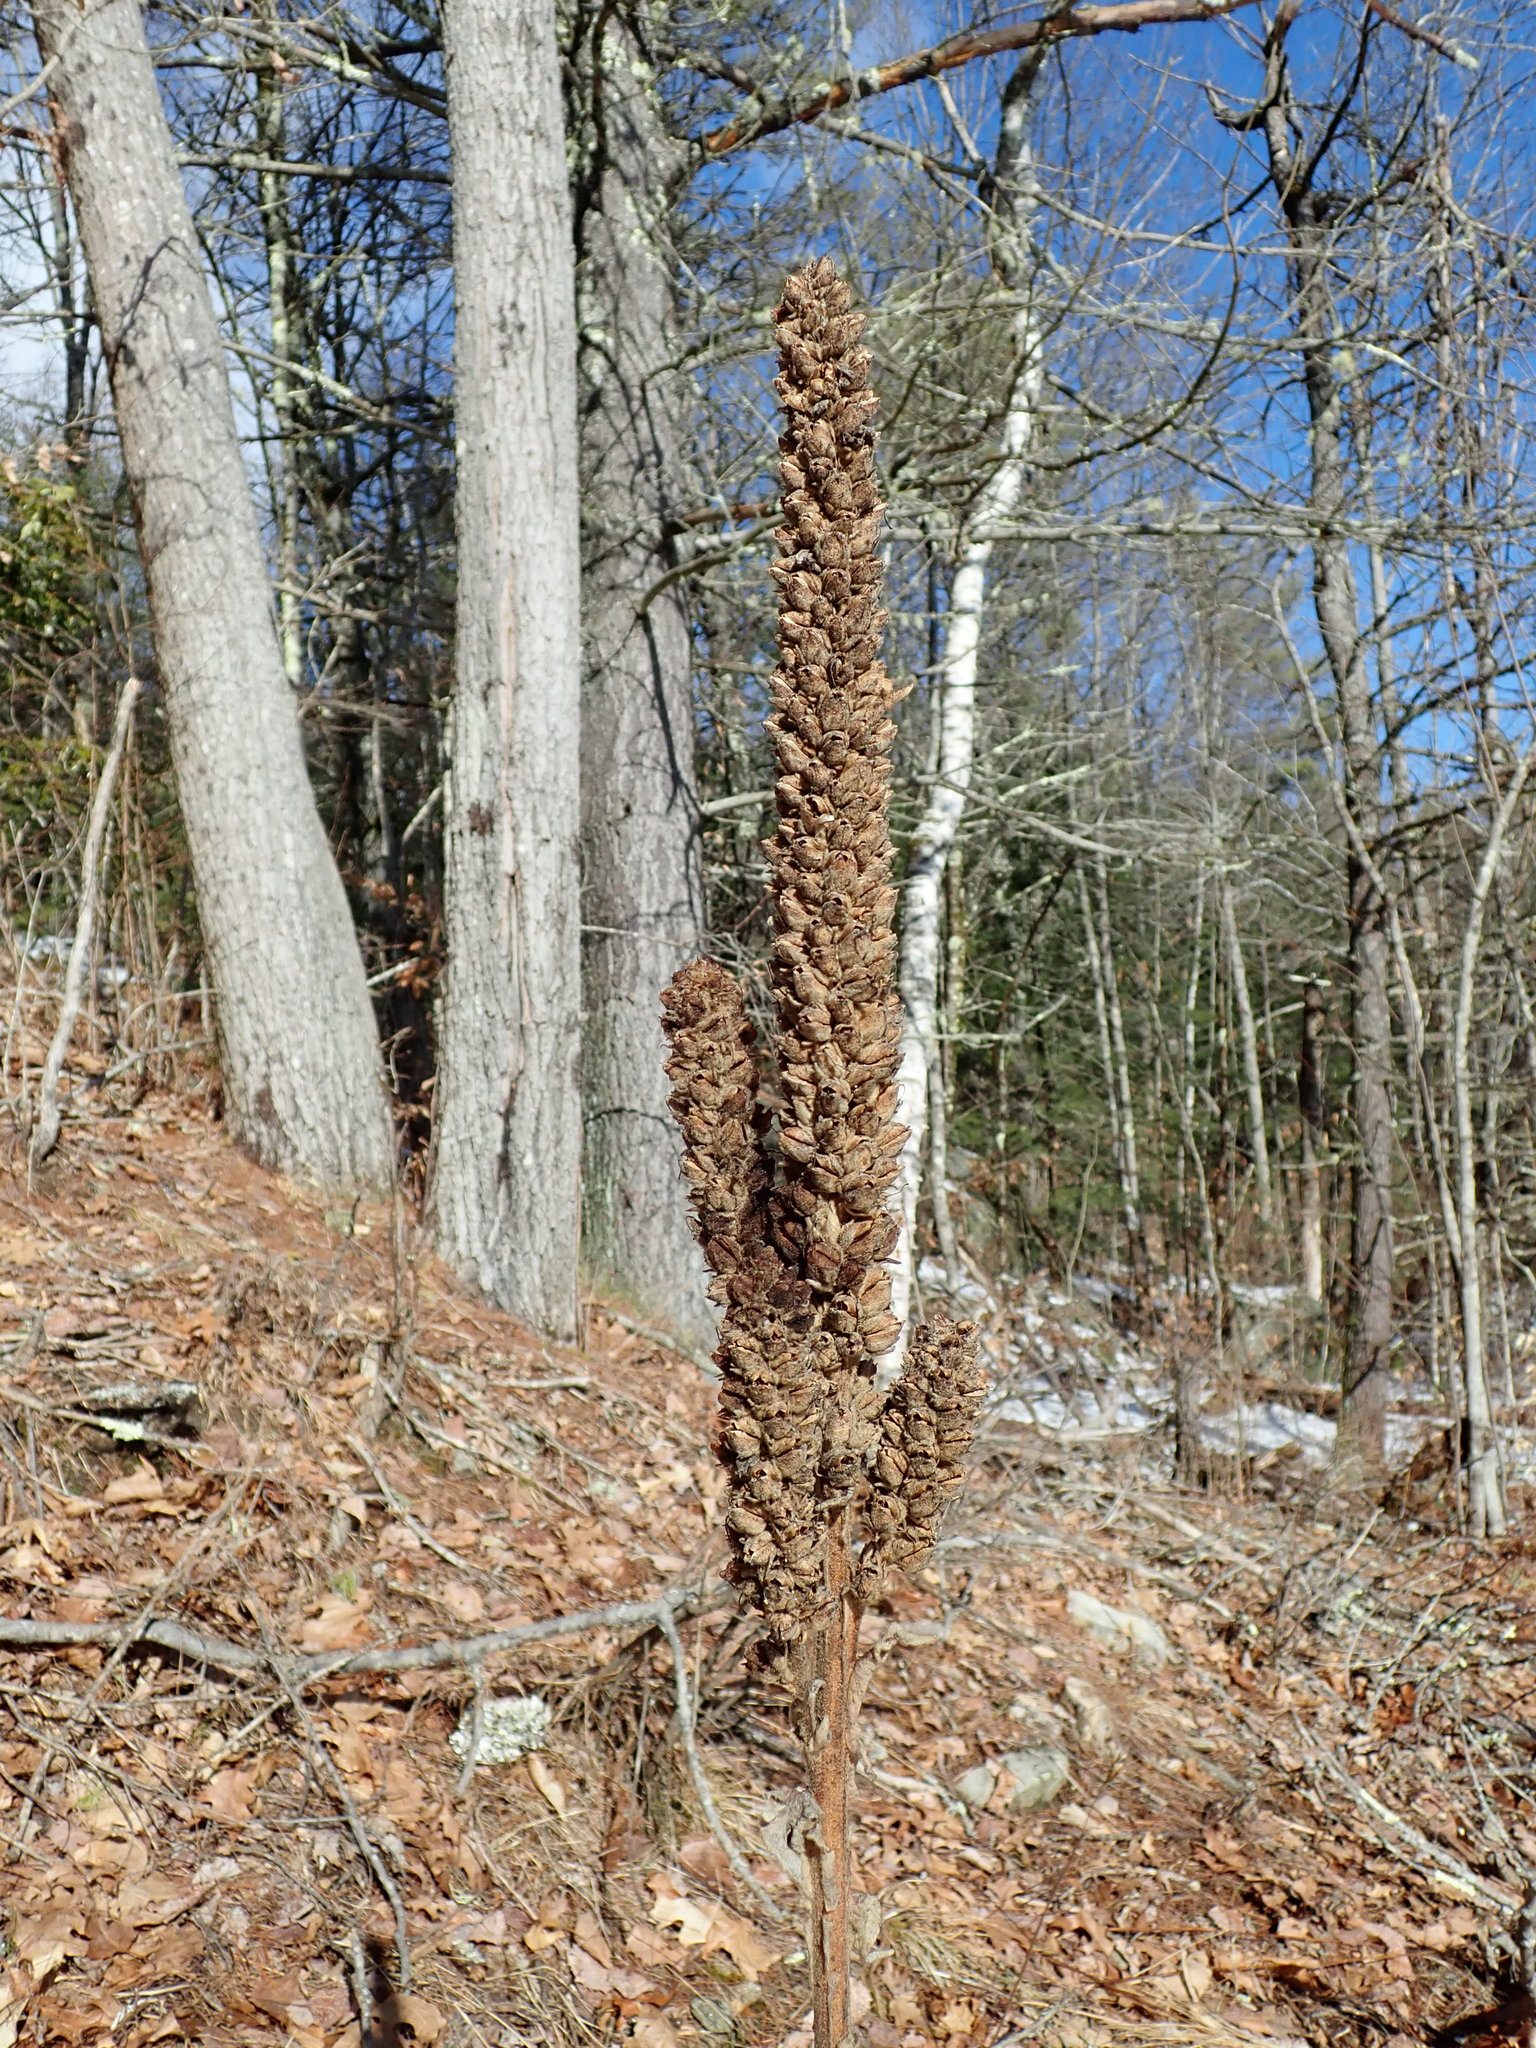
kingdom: Plantae
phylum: Tracheophyta
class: Magnoliopsida
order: Lamiales
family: Scrophulariaceae
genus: Verbascum
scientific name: Verbascum thapsus
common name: Common mullein
